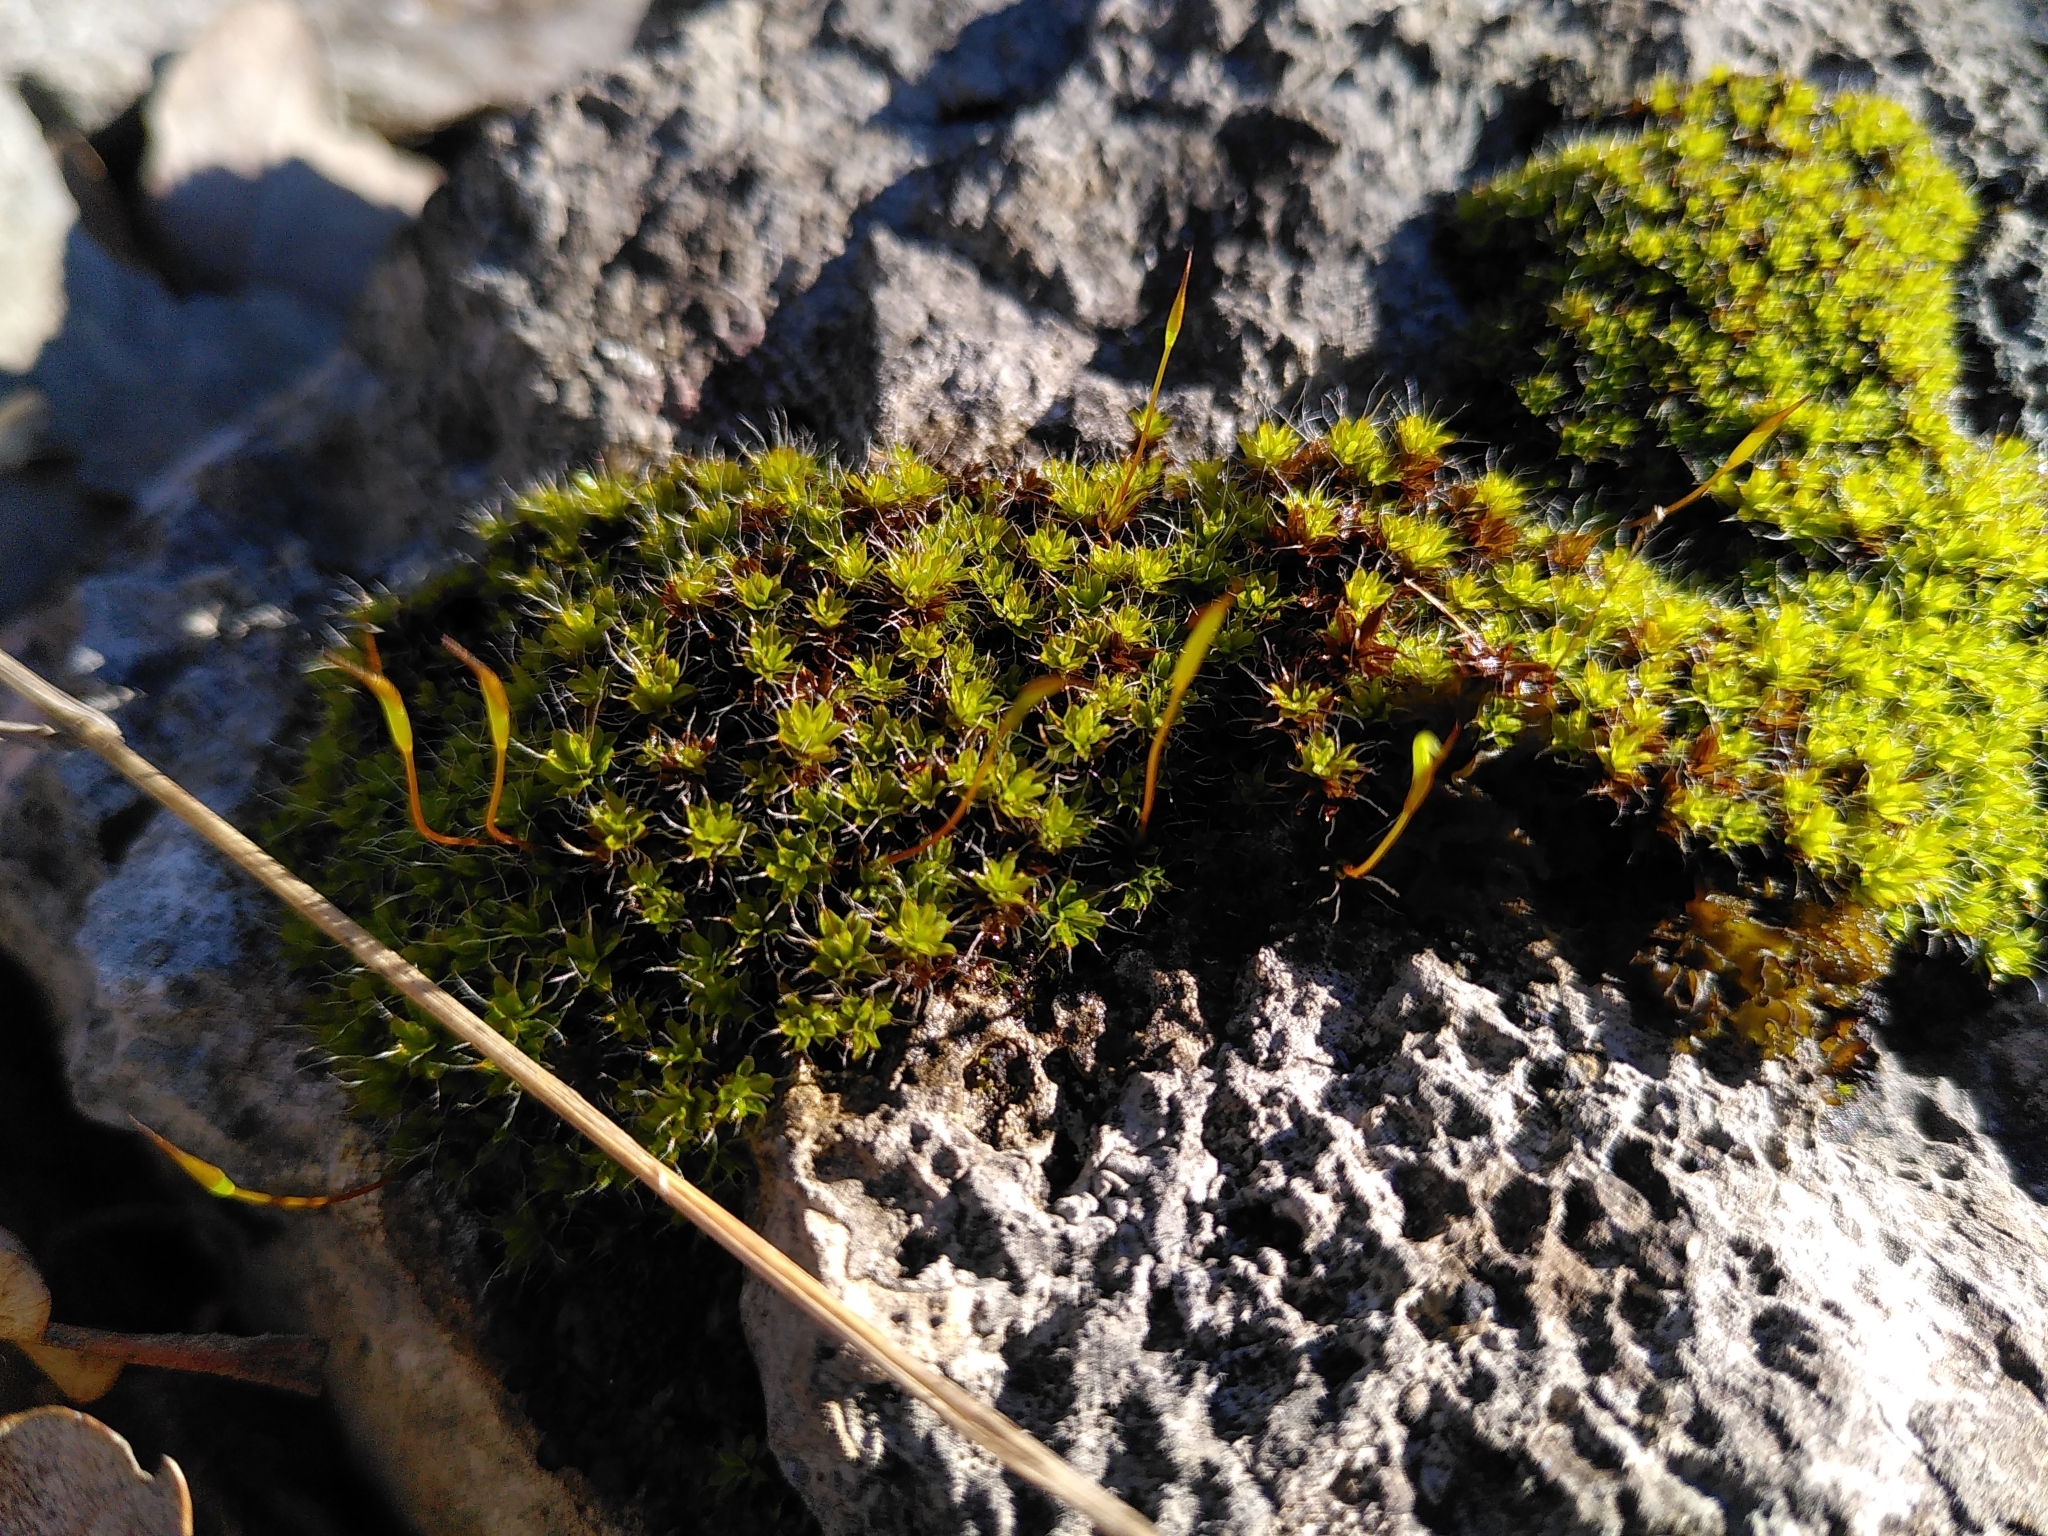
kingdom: Plantae
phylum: Bryophyta
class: Bryopsida
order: Pottiales
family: Pottiaceae
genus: Syntrichia
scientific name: Syntrichia ruralis
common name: Sidewalk screw moss
